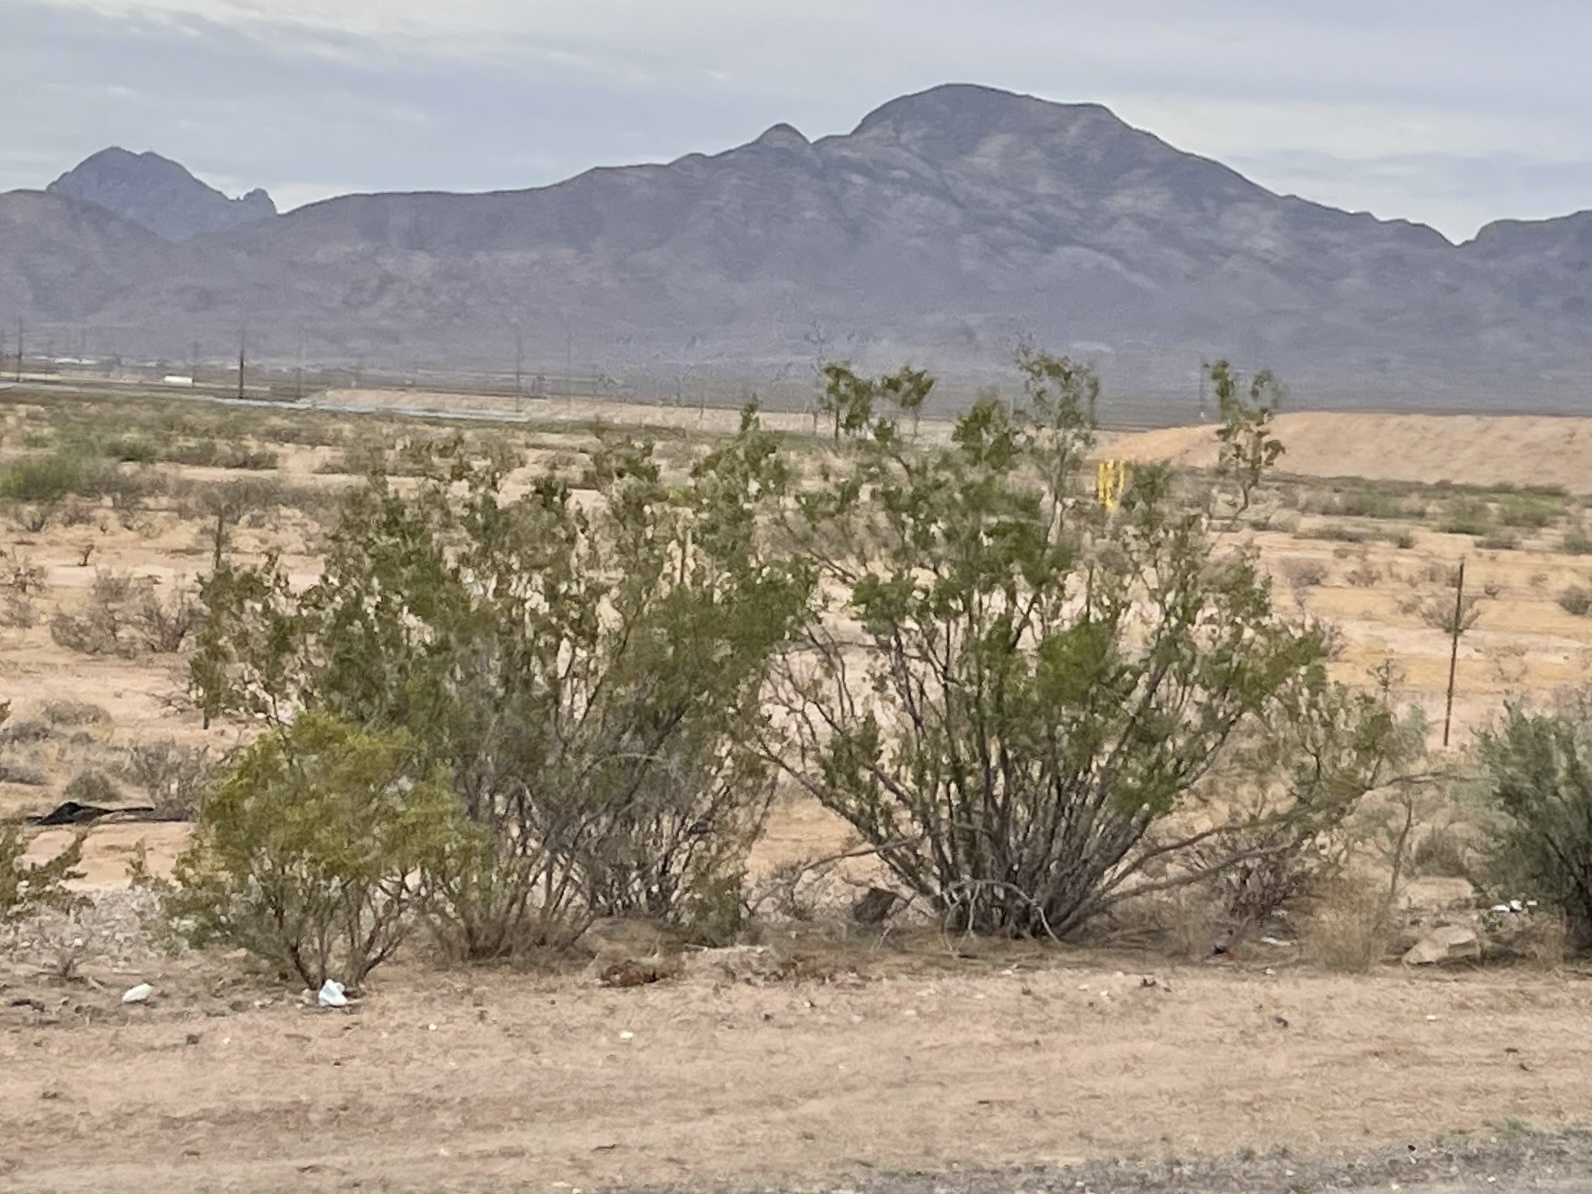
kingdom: Plantae
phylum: Tracheophyta
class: Magnoliopsida
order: Zygophyllales
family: Zygophyllaceae
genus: Larrea
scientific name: Larrea tridentata
